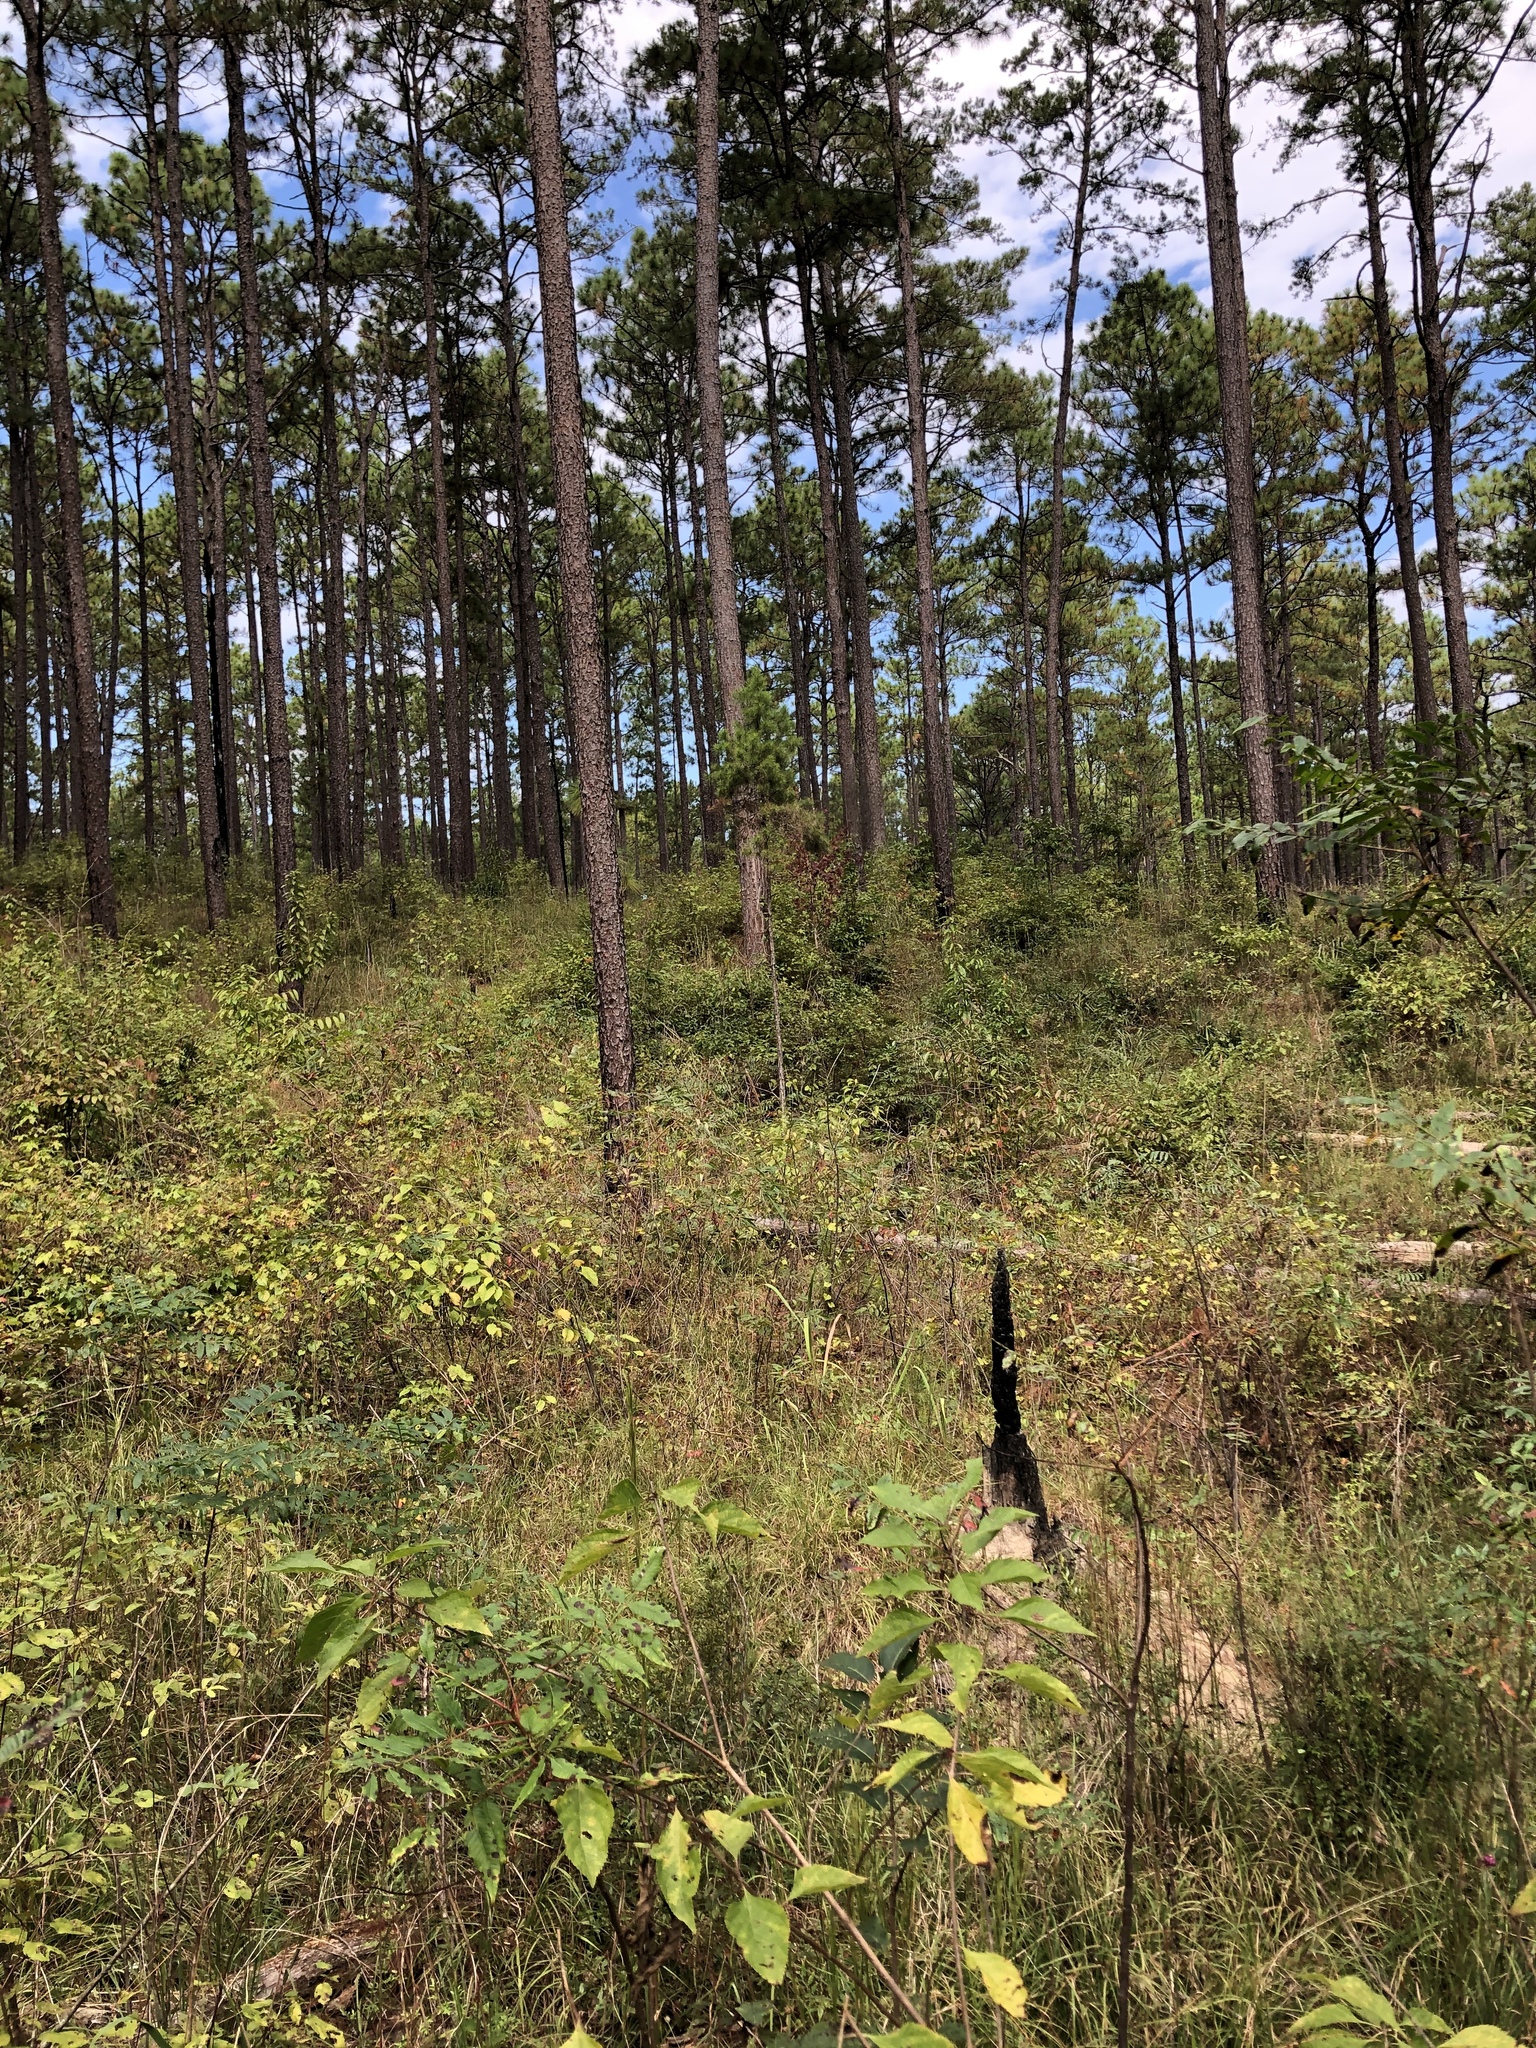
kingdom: Plantae
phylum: Tracheophyta
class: Magnoliopsida
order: Fabales
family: Fabaceae
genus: Lespedeza
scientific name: Lespedeza hirta
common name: Hairy lespedeza
